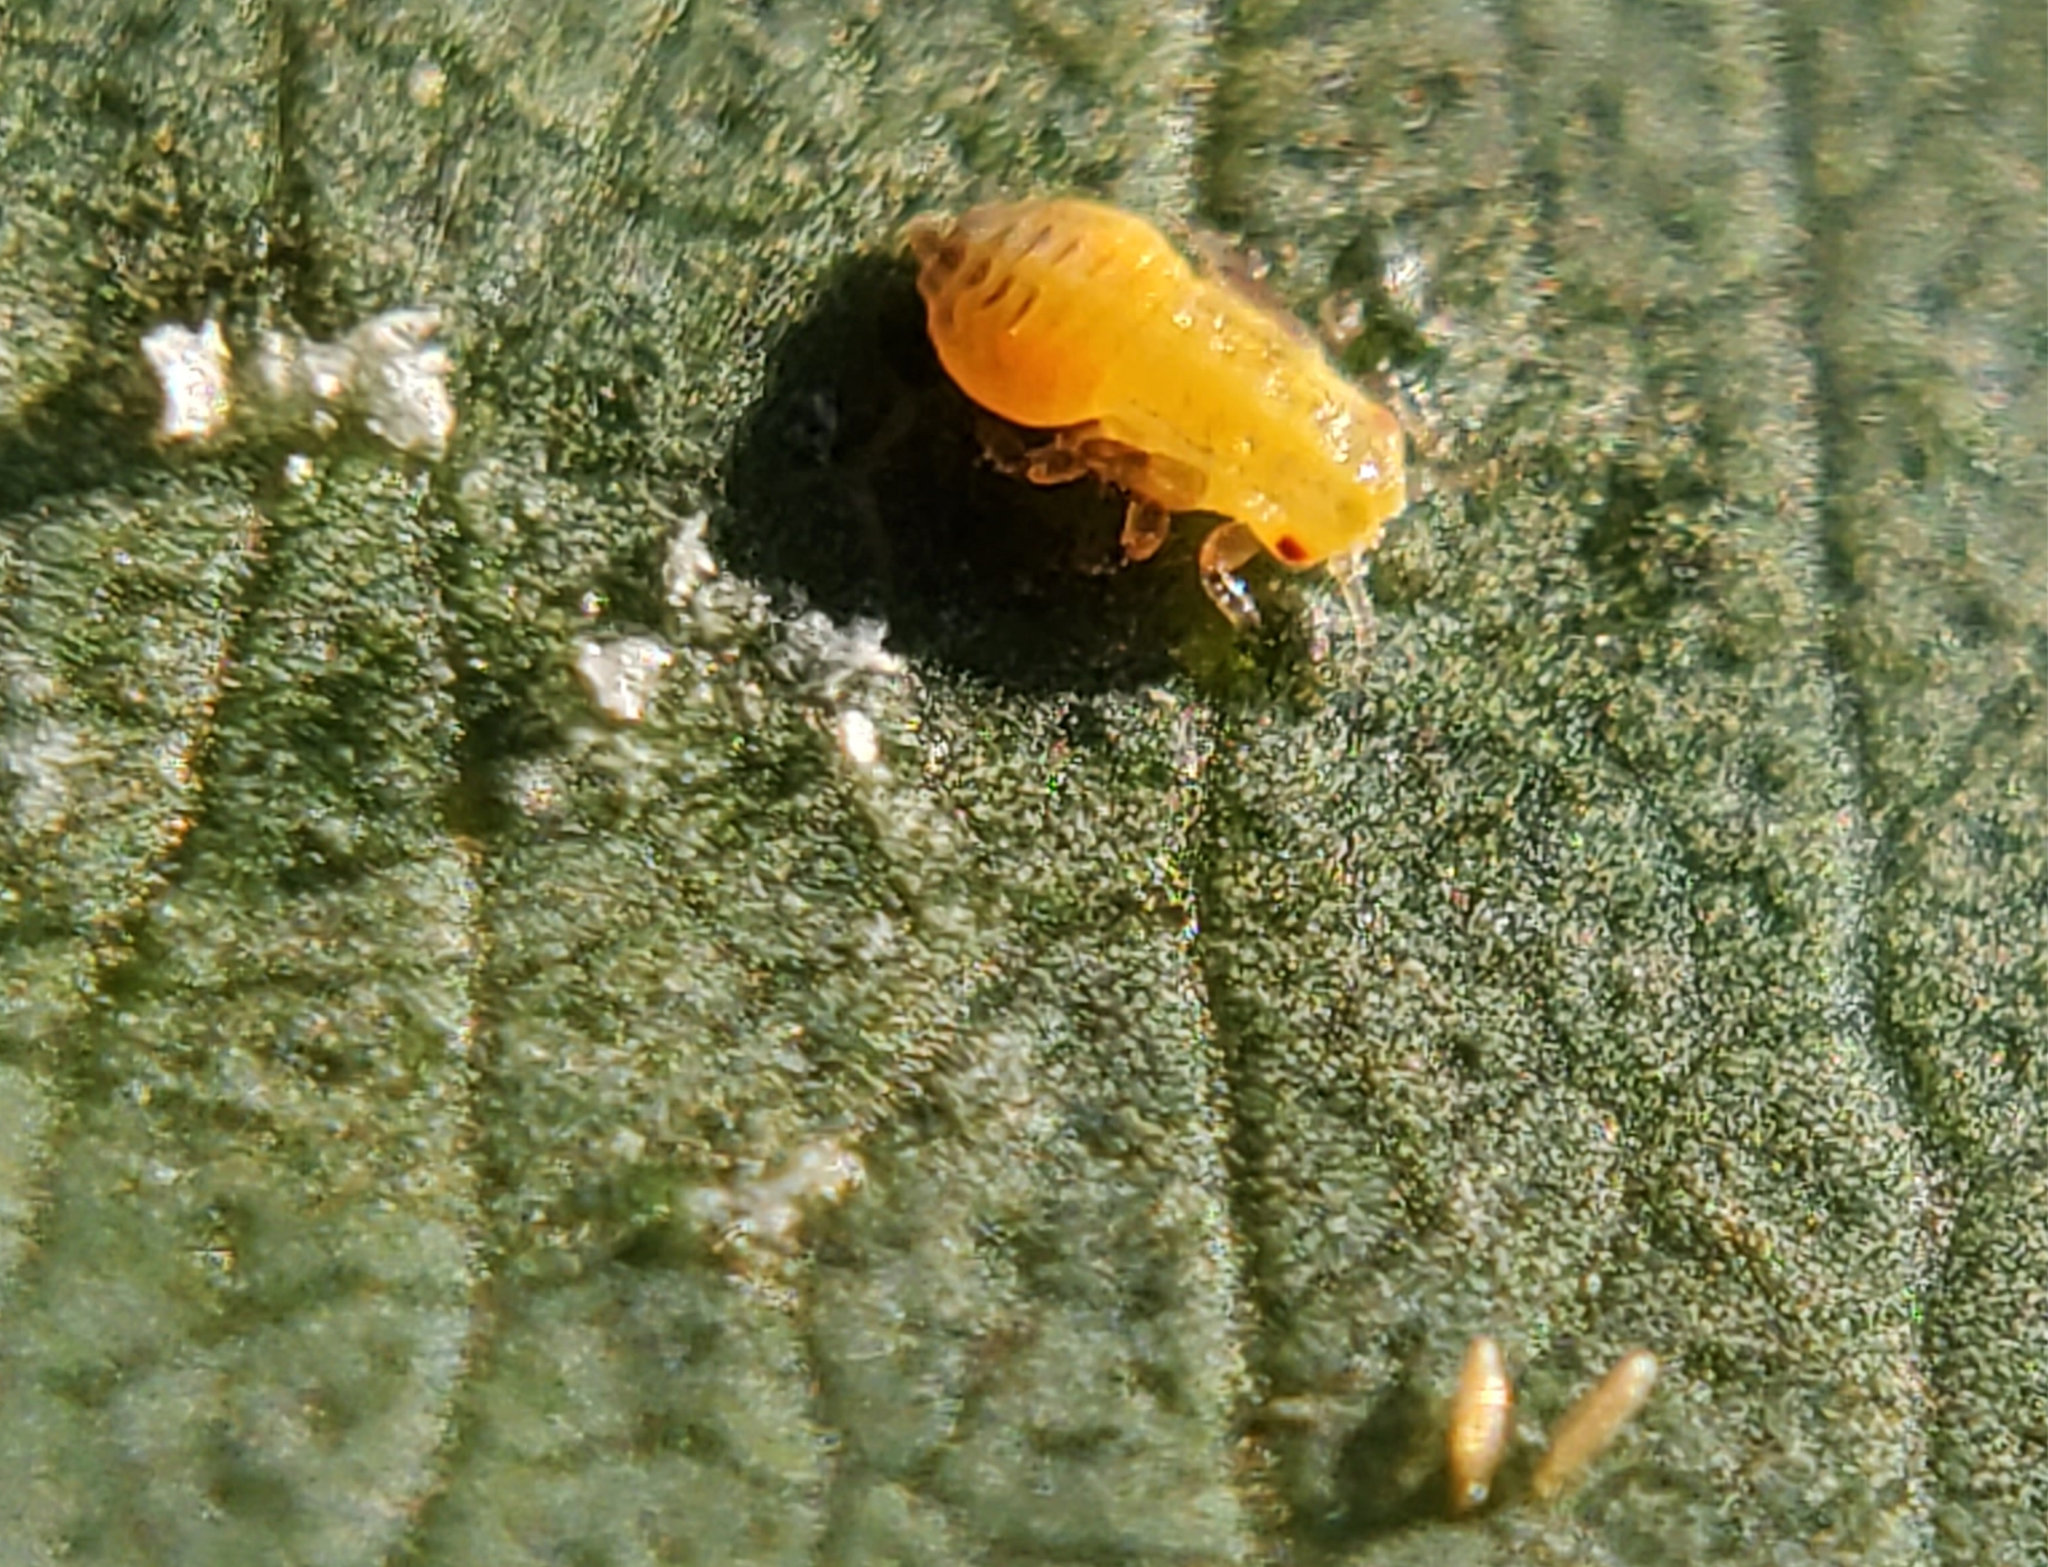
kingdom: Animalia
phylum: Arthropoda
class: Insecta
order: Hemiptera
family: Aphalaridae
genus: Glycaspis
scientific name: Glycaspis brimblecombei
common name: Red gum lerp psyllid
